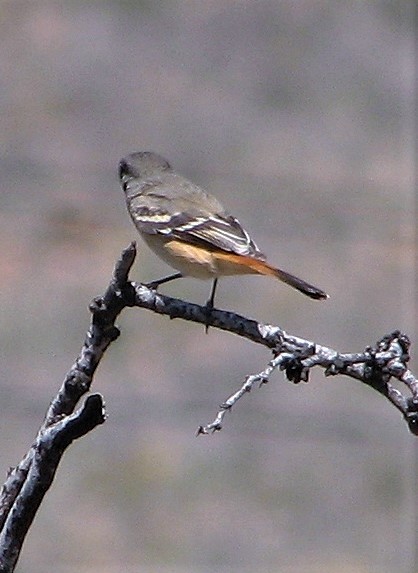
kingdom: Animalia
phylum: Chordata
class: Aves
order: Passeriformes
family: Tyrannidae
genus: Knipolegus
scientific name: Knipolegus aterrimus
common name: White-winged black tyrant
